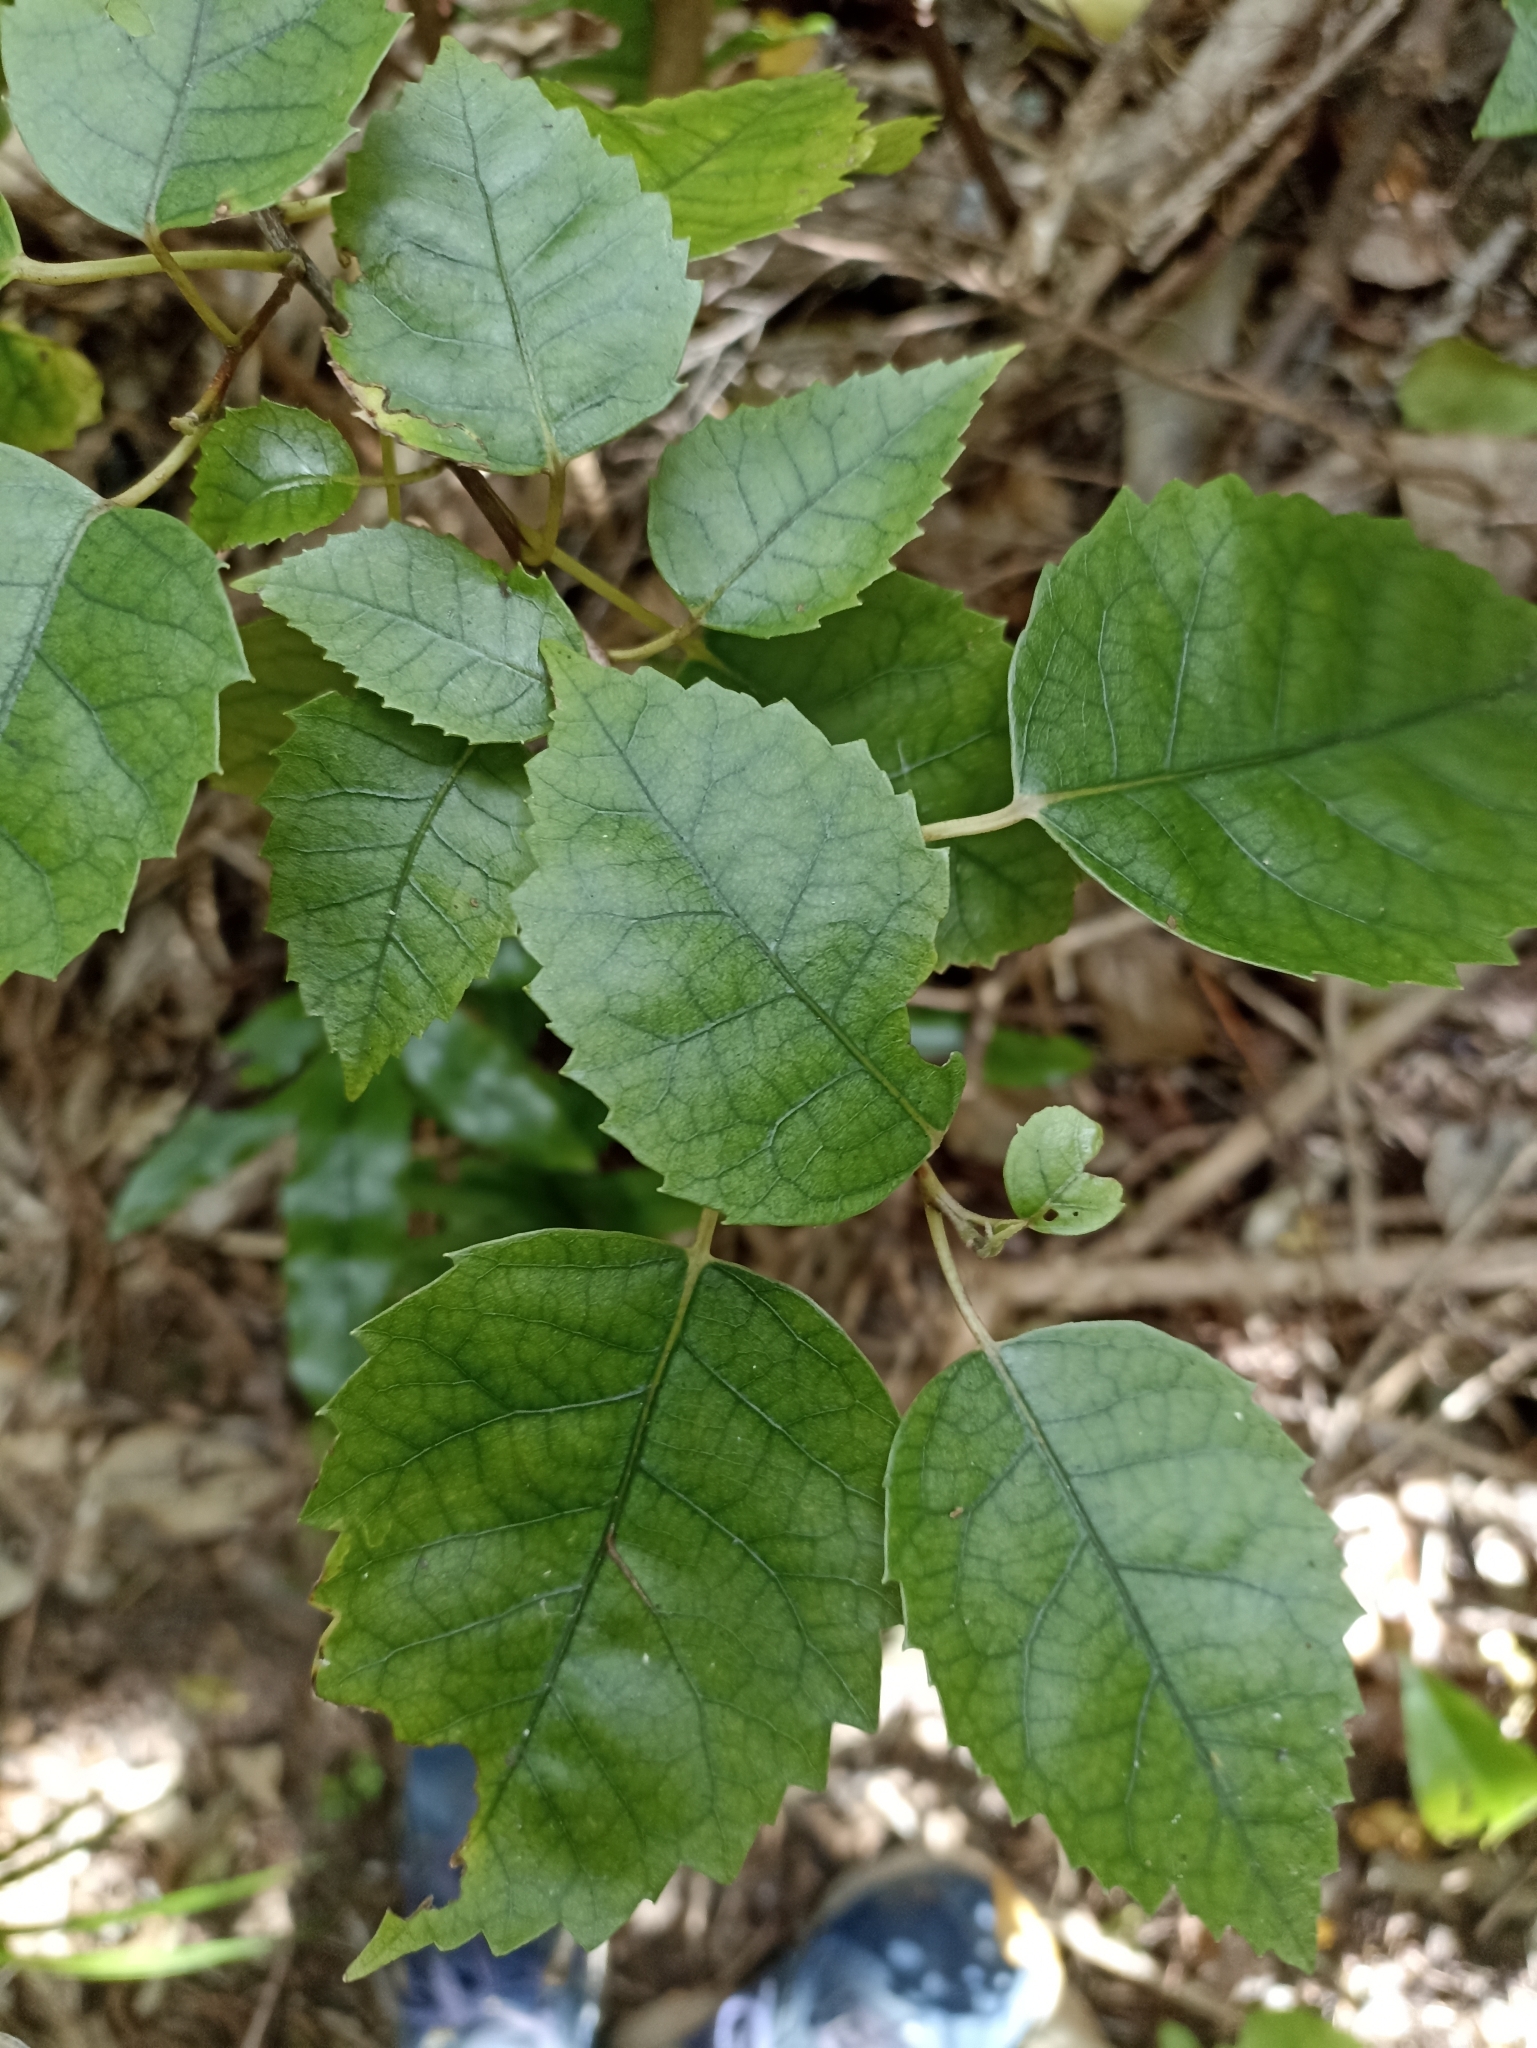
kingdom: Plantae
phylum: Tracheophyta
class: Magnoliopsida
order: Malvales
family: Malvaceae
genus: Hoheria
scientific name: Hoheria populnea
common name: Lacebark
